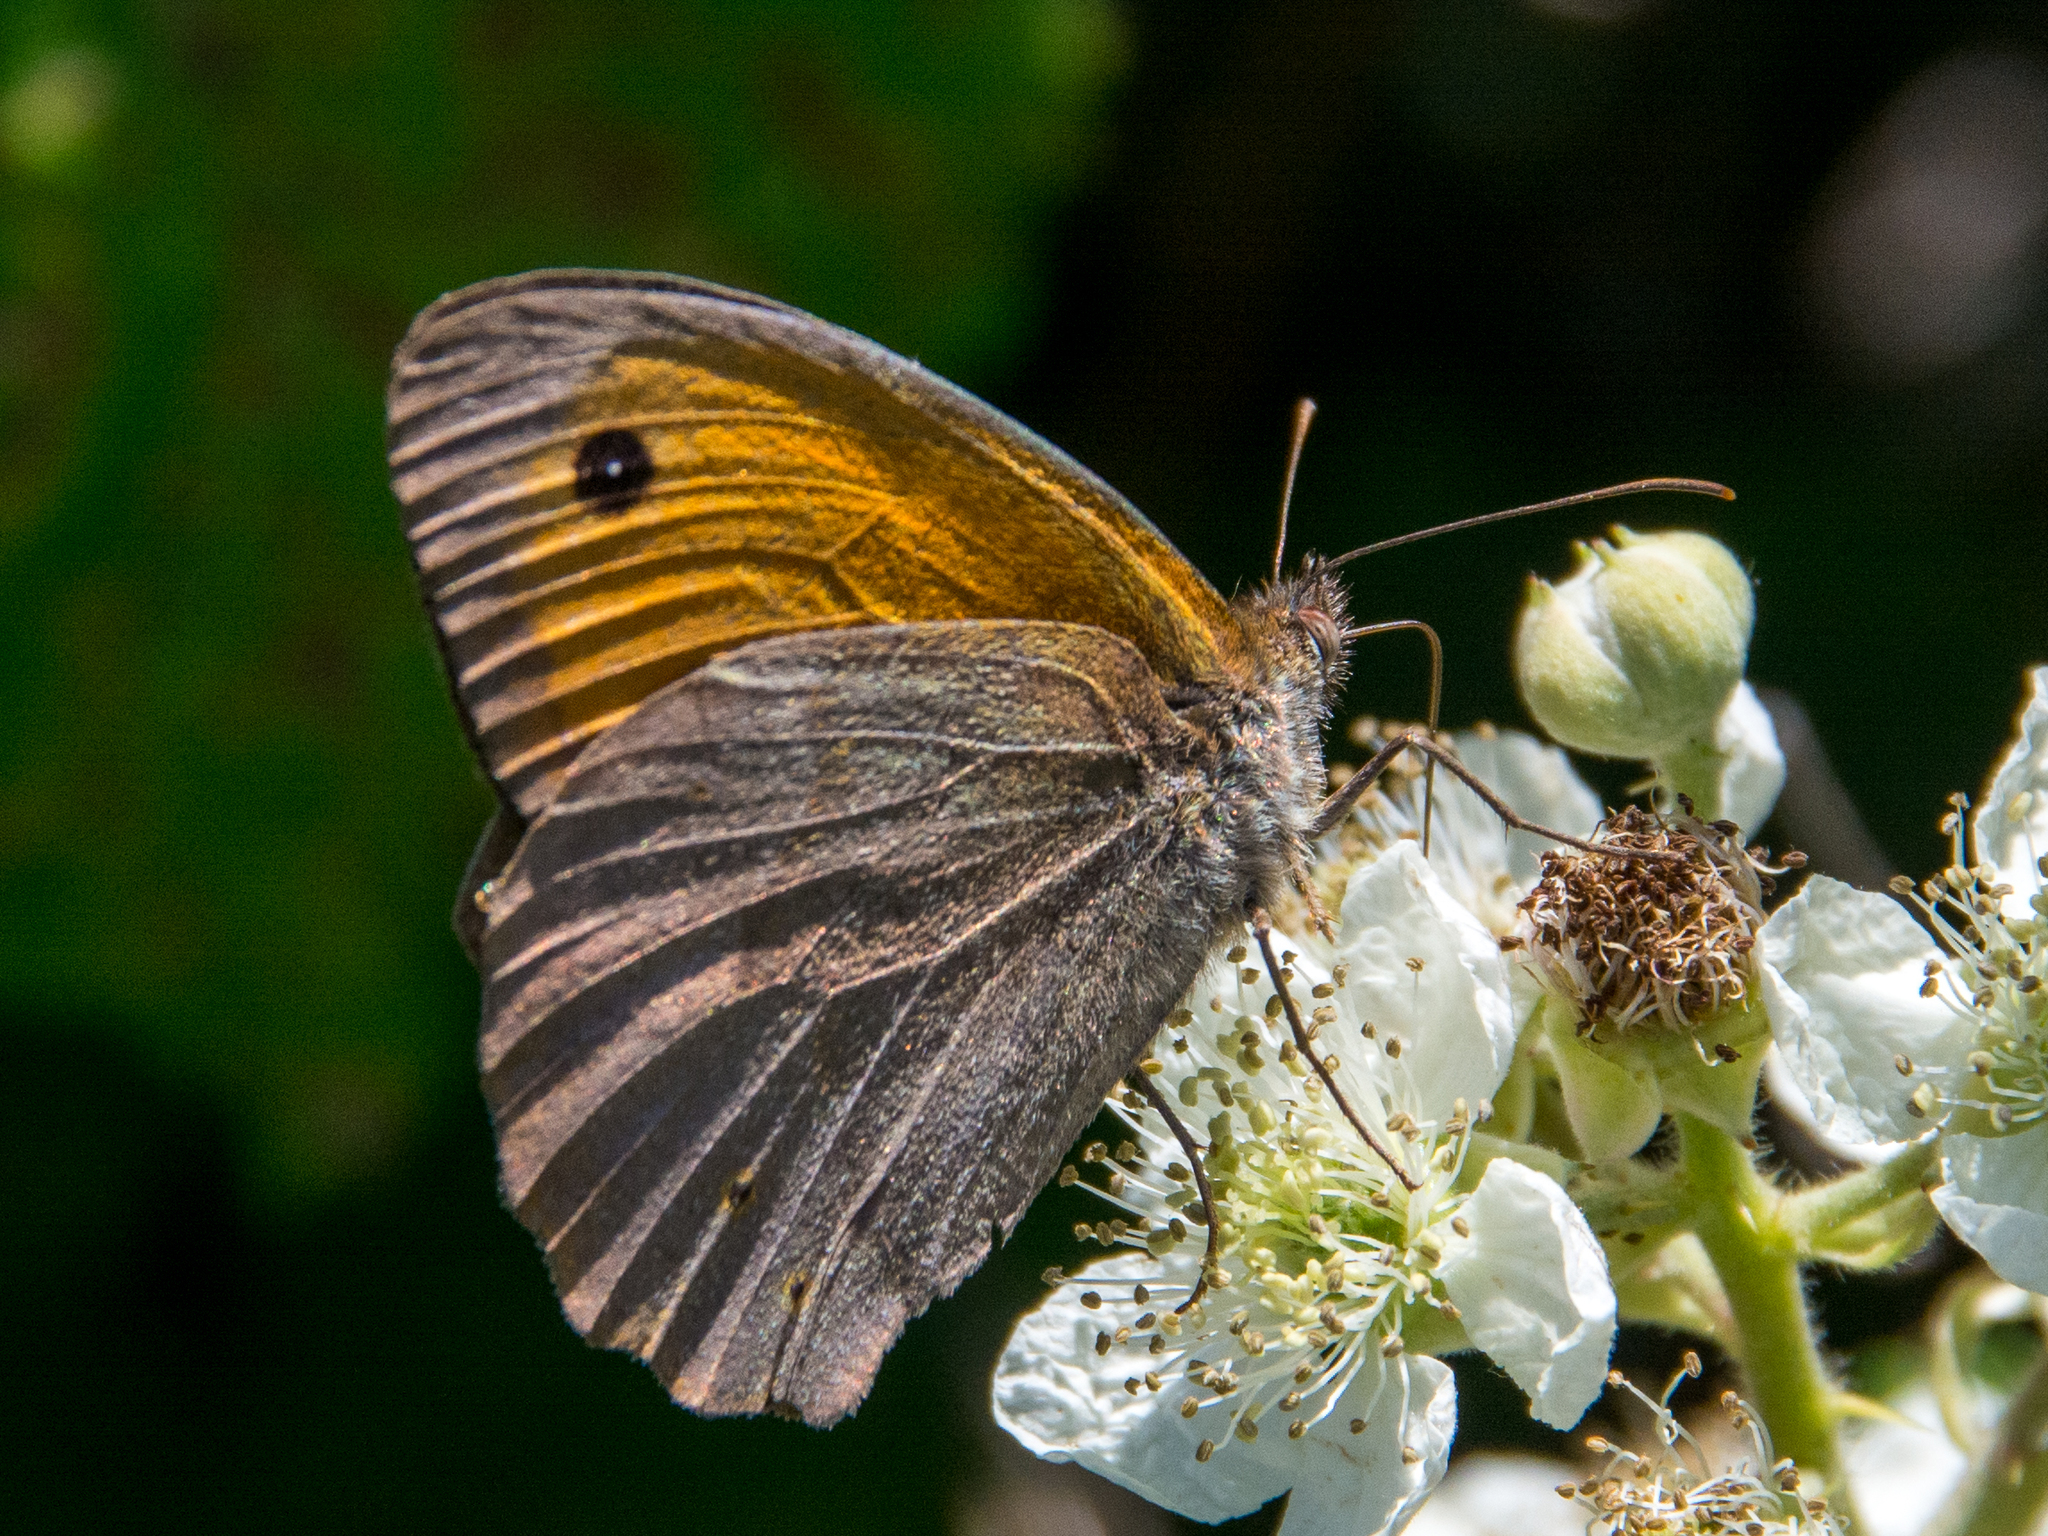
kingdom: Animalia
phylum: Arthropoda
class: Insecta
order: Lepidoptera
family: Nymphalidae
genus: Maniola
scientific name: Maniola jurtina
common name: Meadow brown
